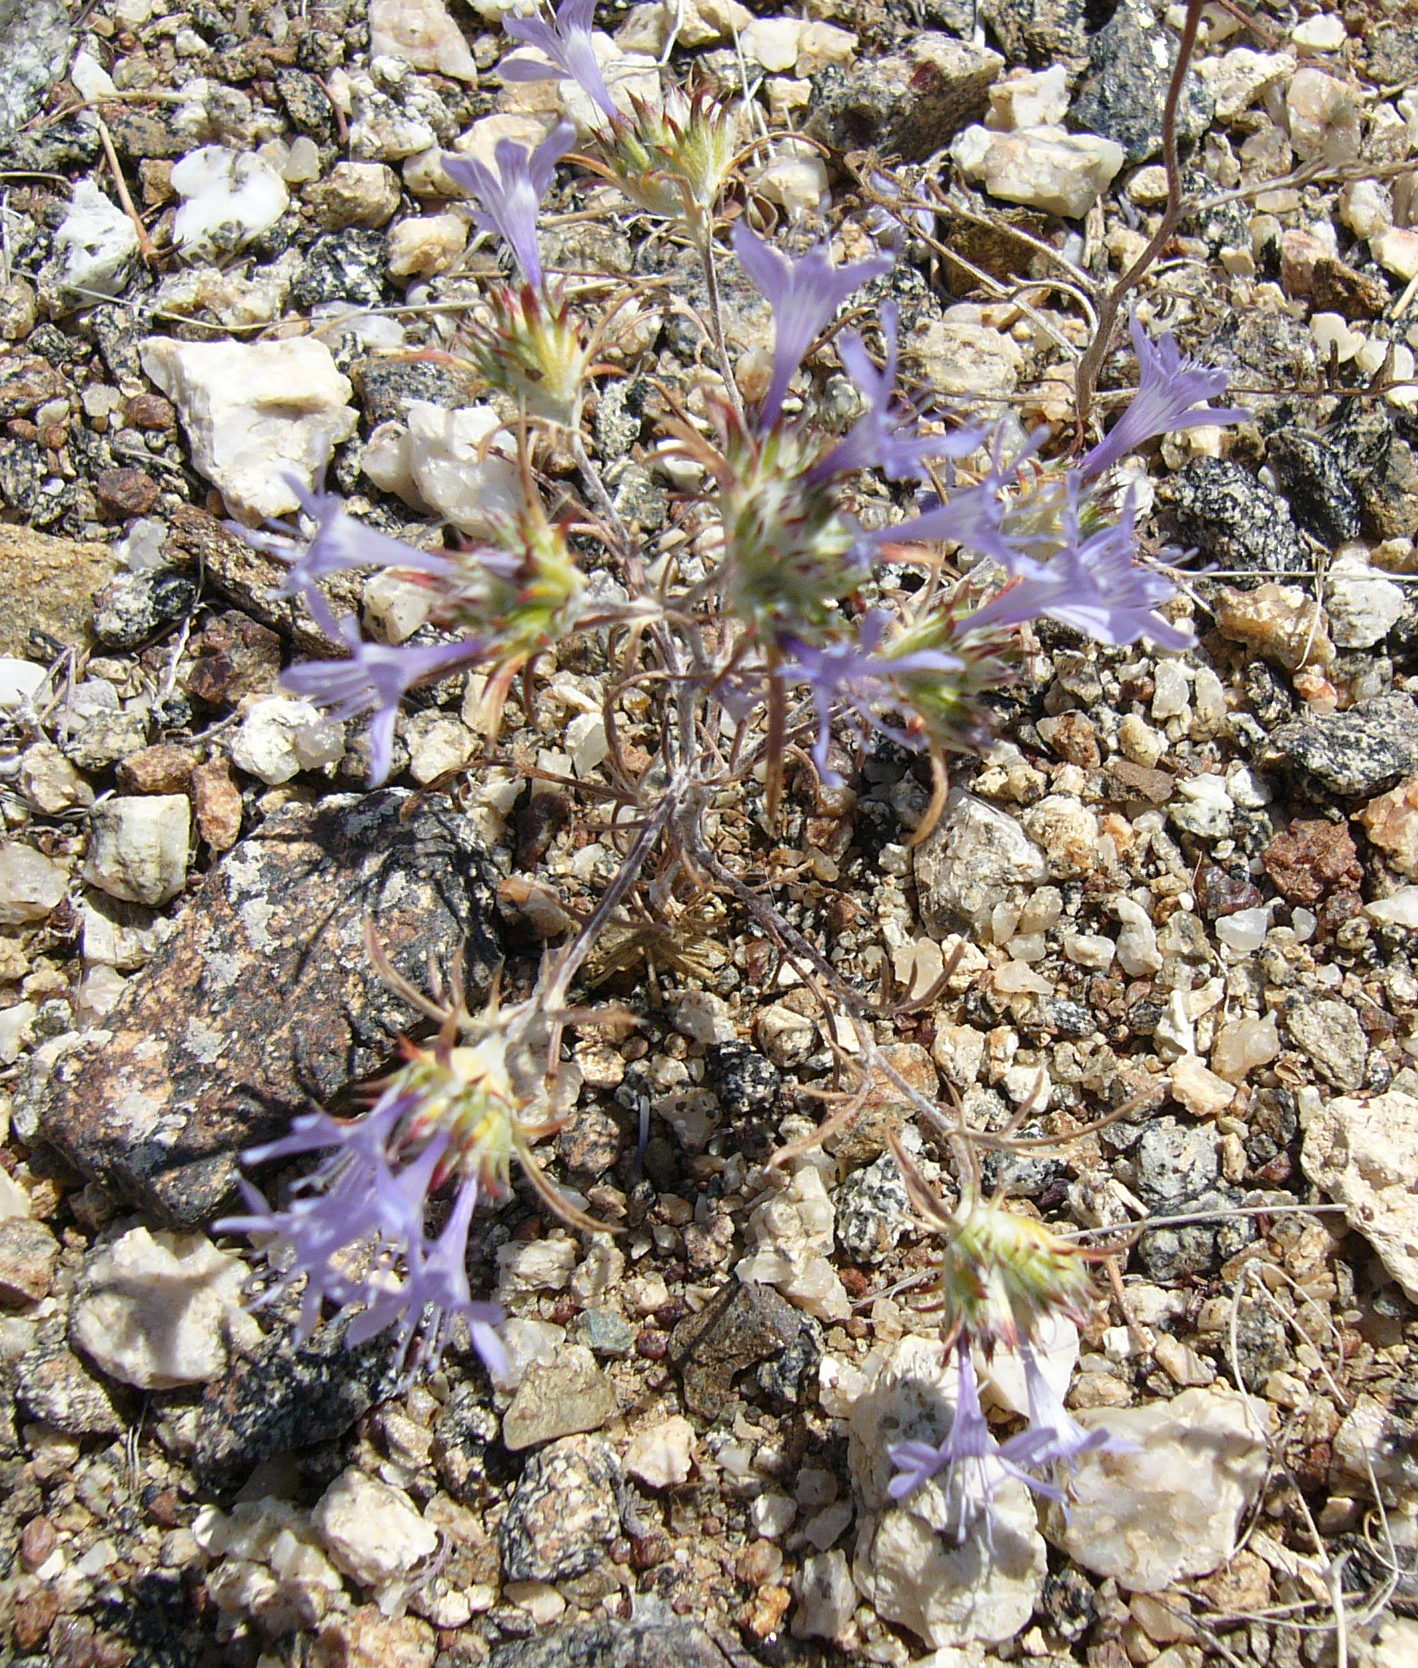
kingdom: Plantae
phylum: Tracheophyta
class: Magnoliopsida
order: Ericales
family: Polemoniaceae
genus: Eriastrum
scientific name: Eriastrum eremicum
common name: Desert eriastrum
